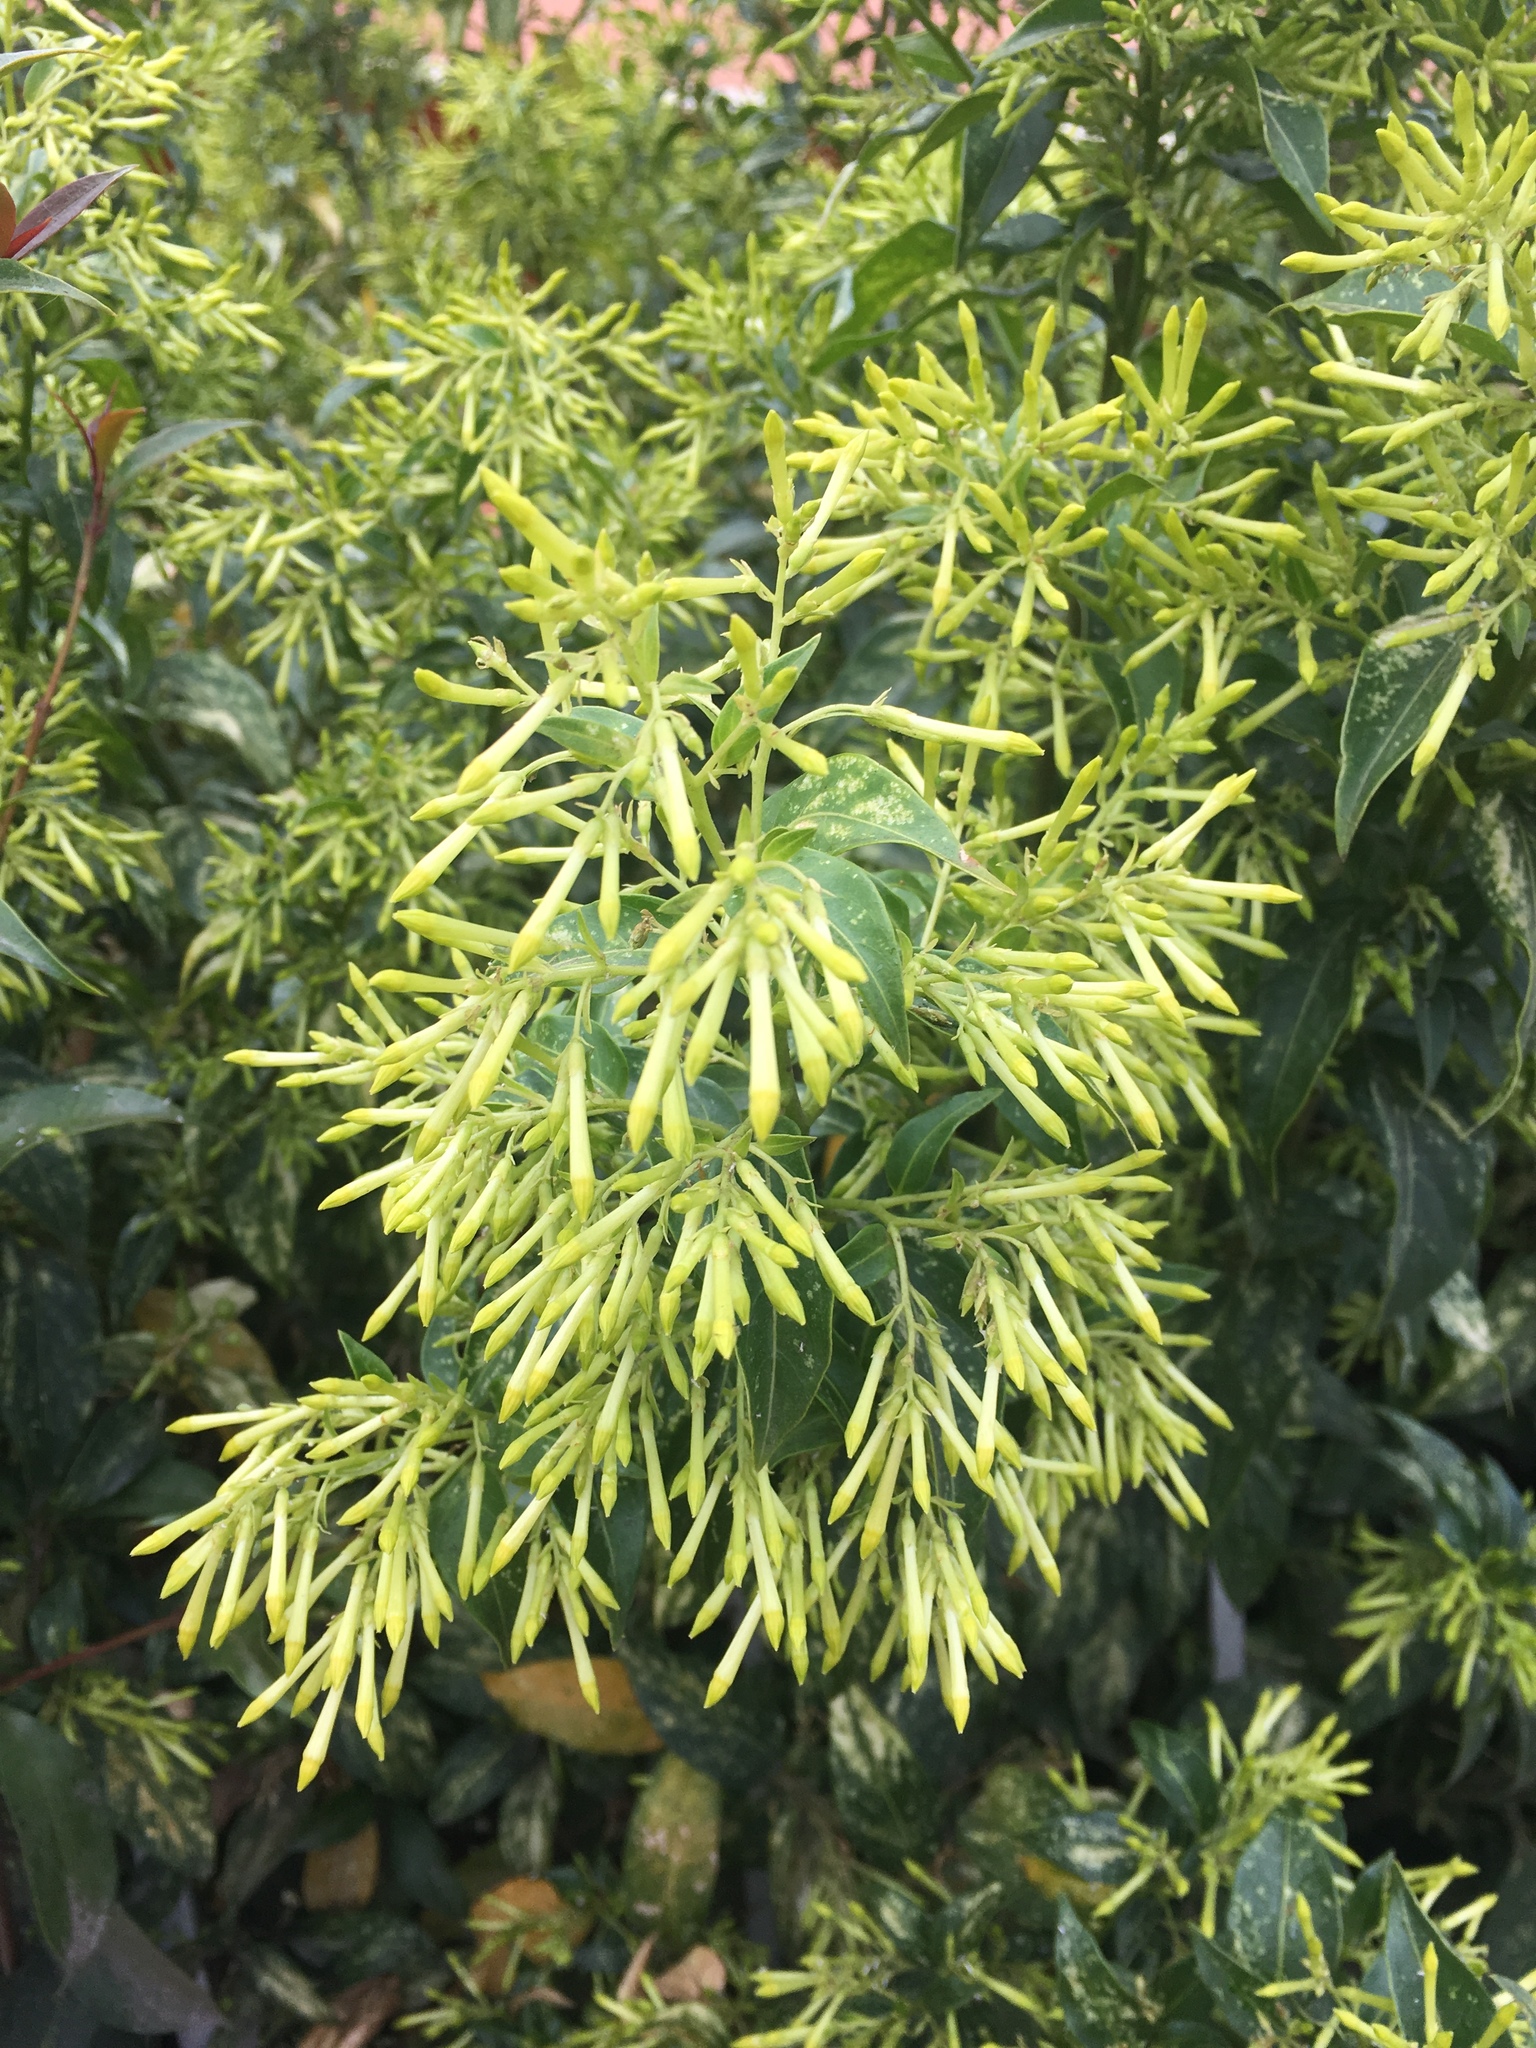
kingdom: Plantae
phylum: Tracheophyta
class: Magnoliopsida
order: Solanales
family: Solanaceae
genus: Cestrum
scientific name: Cestrum nocturnum
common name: Night jessamine
